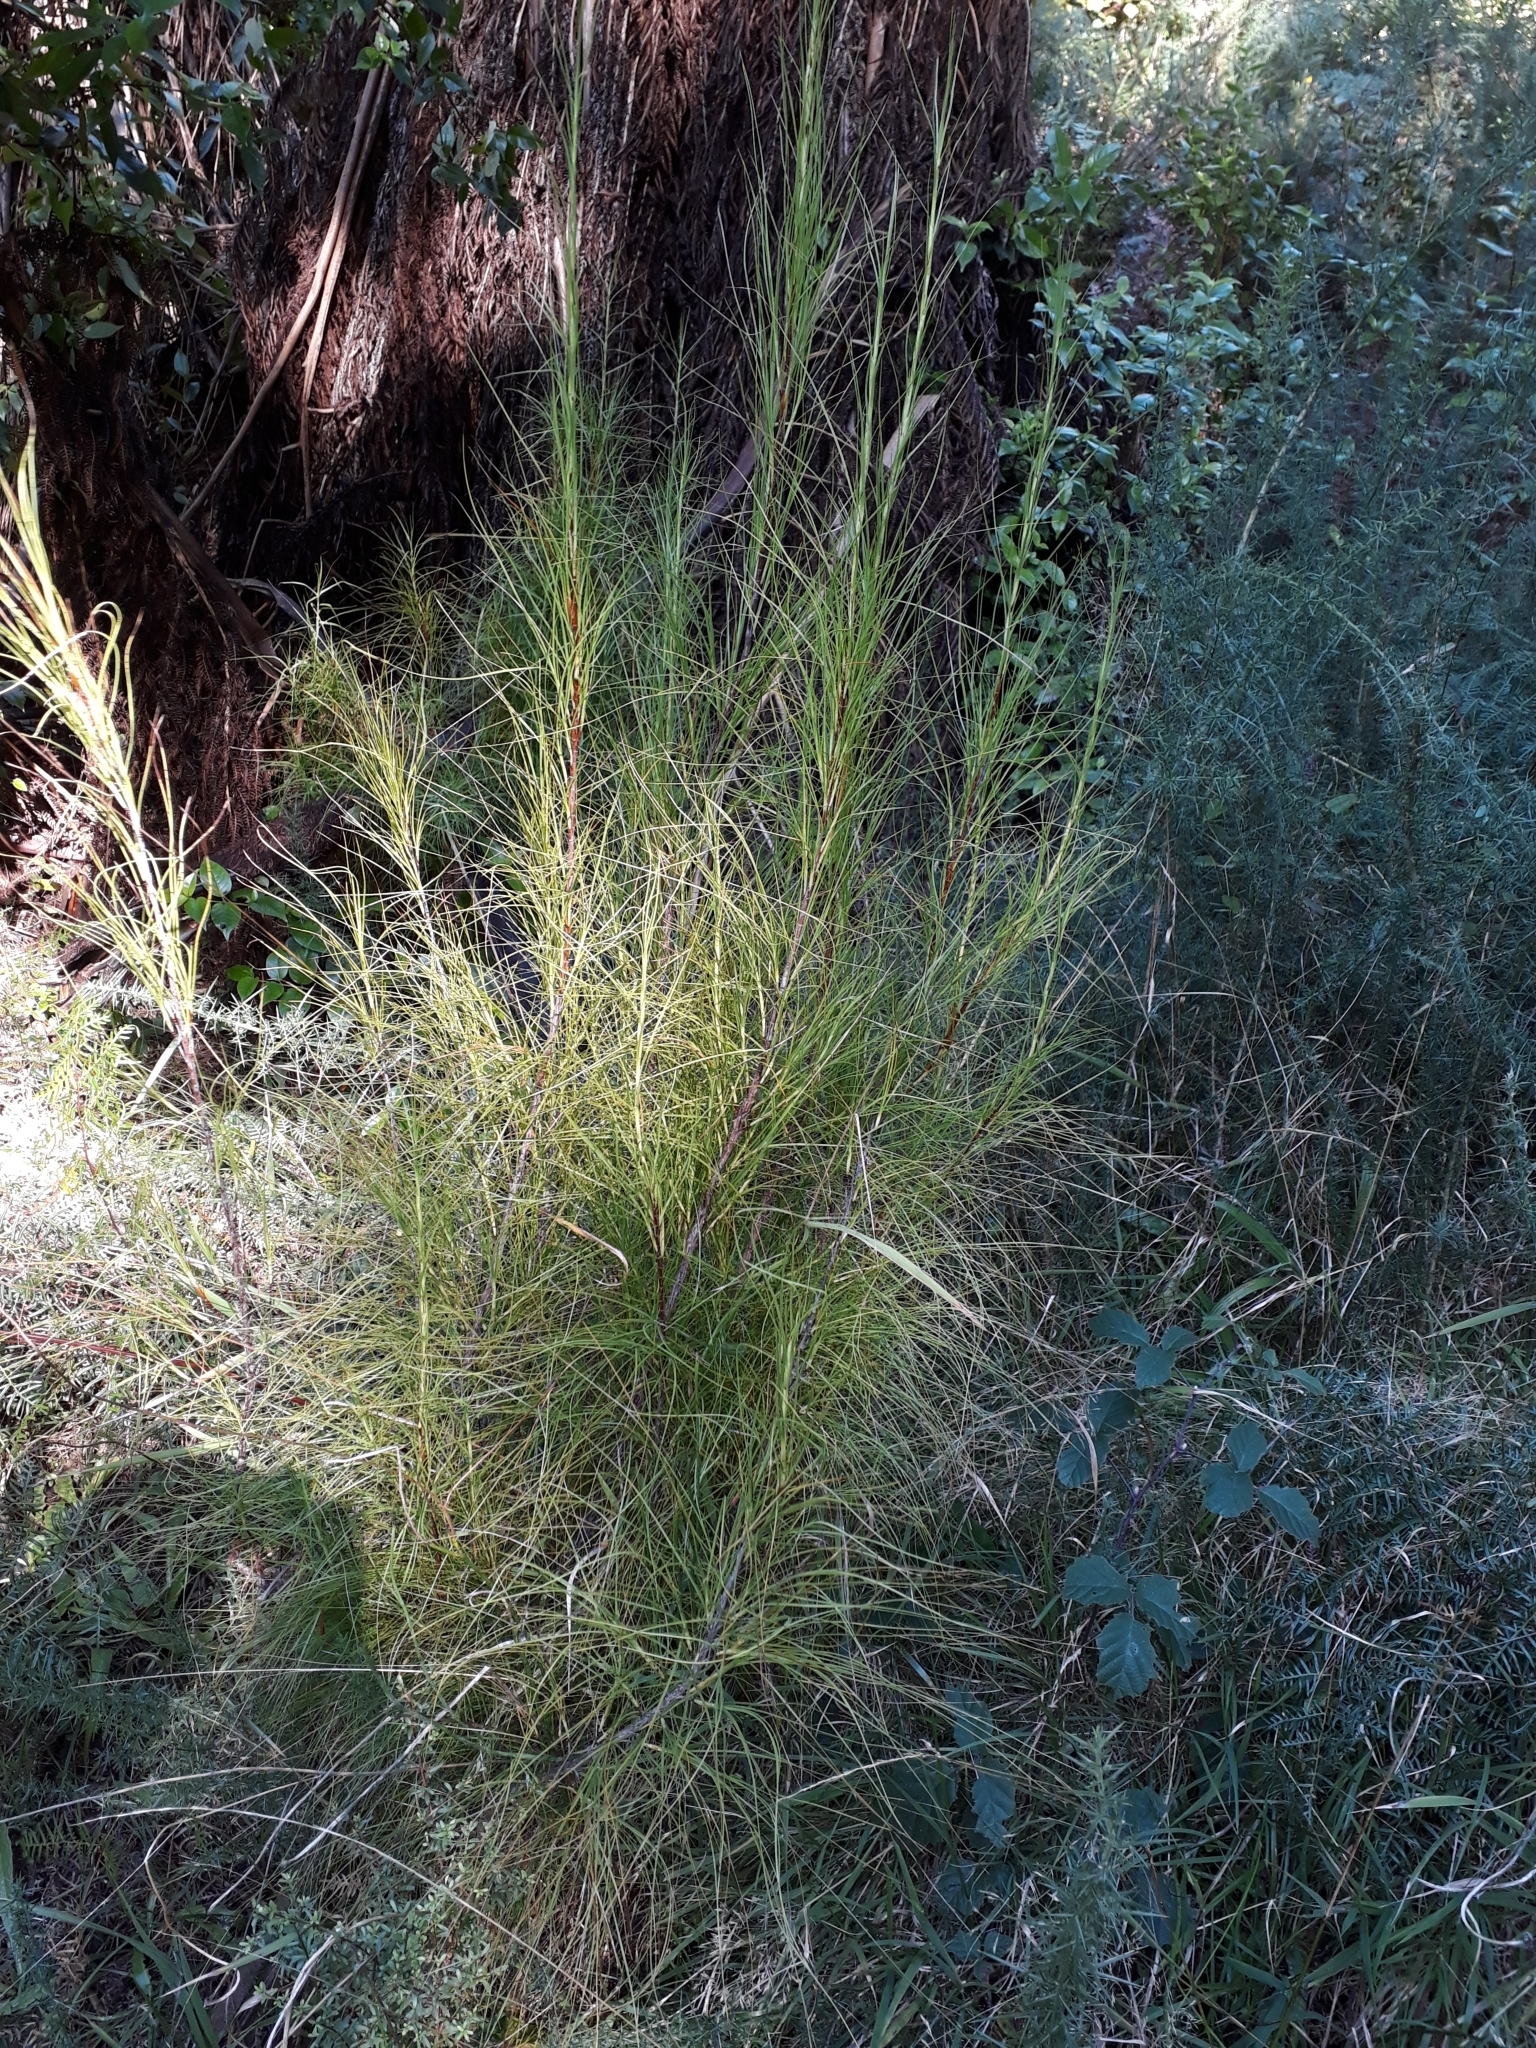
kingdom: Plantae
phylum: Tracheophyta
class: Magnoliopsida
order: Ericales
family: Ericaceae
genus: Dracophyllum
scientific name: Dracophyllum filifolium
